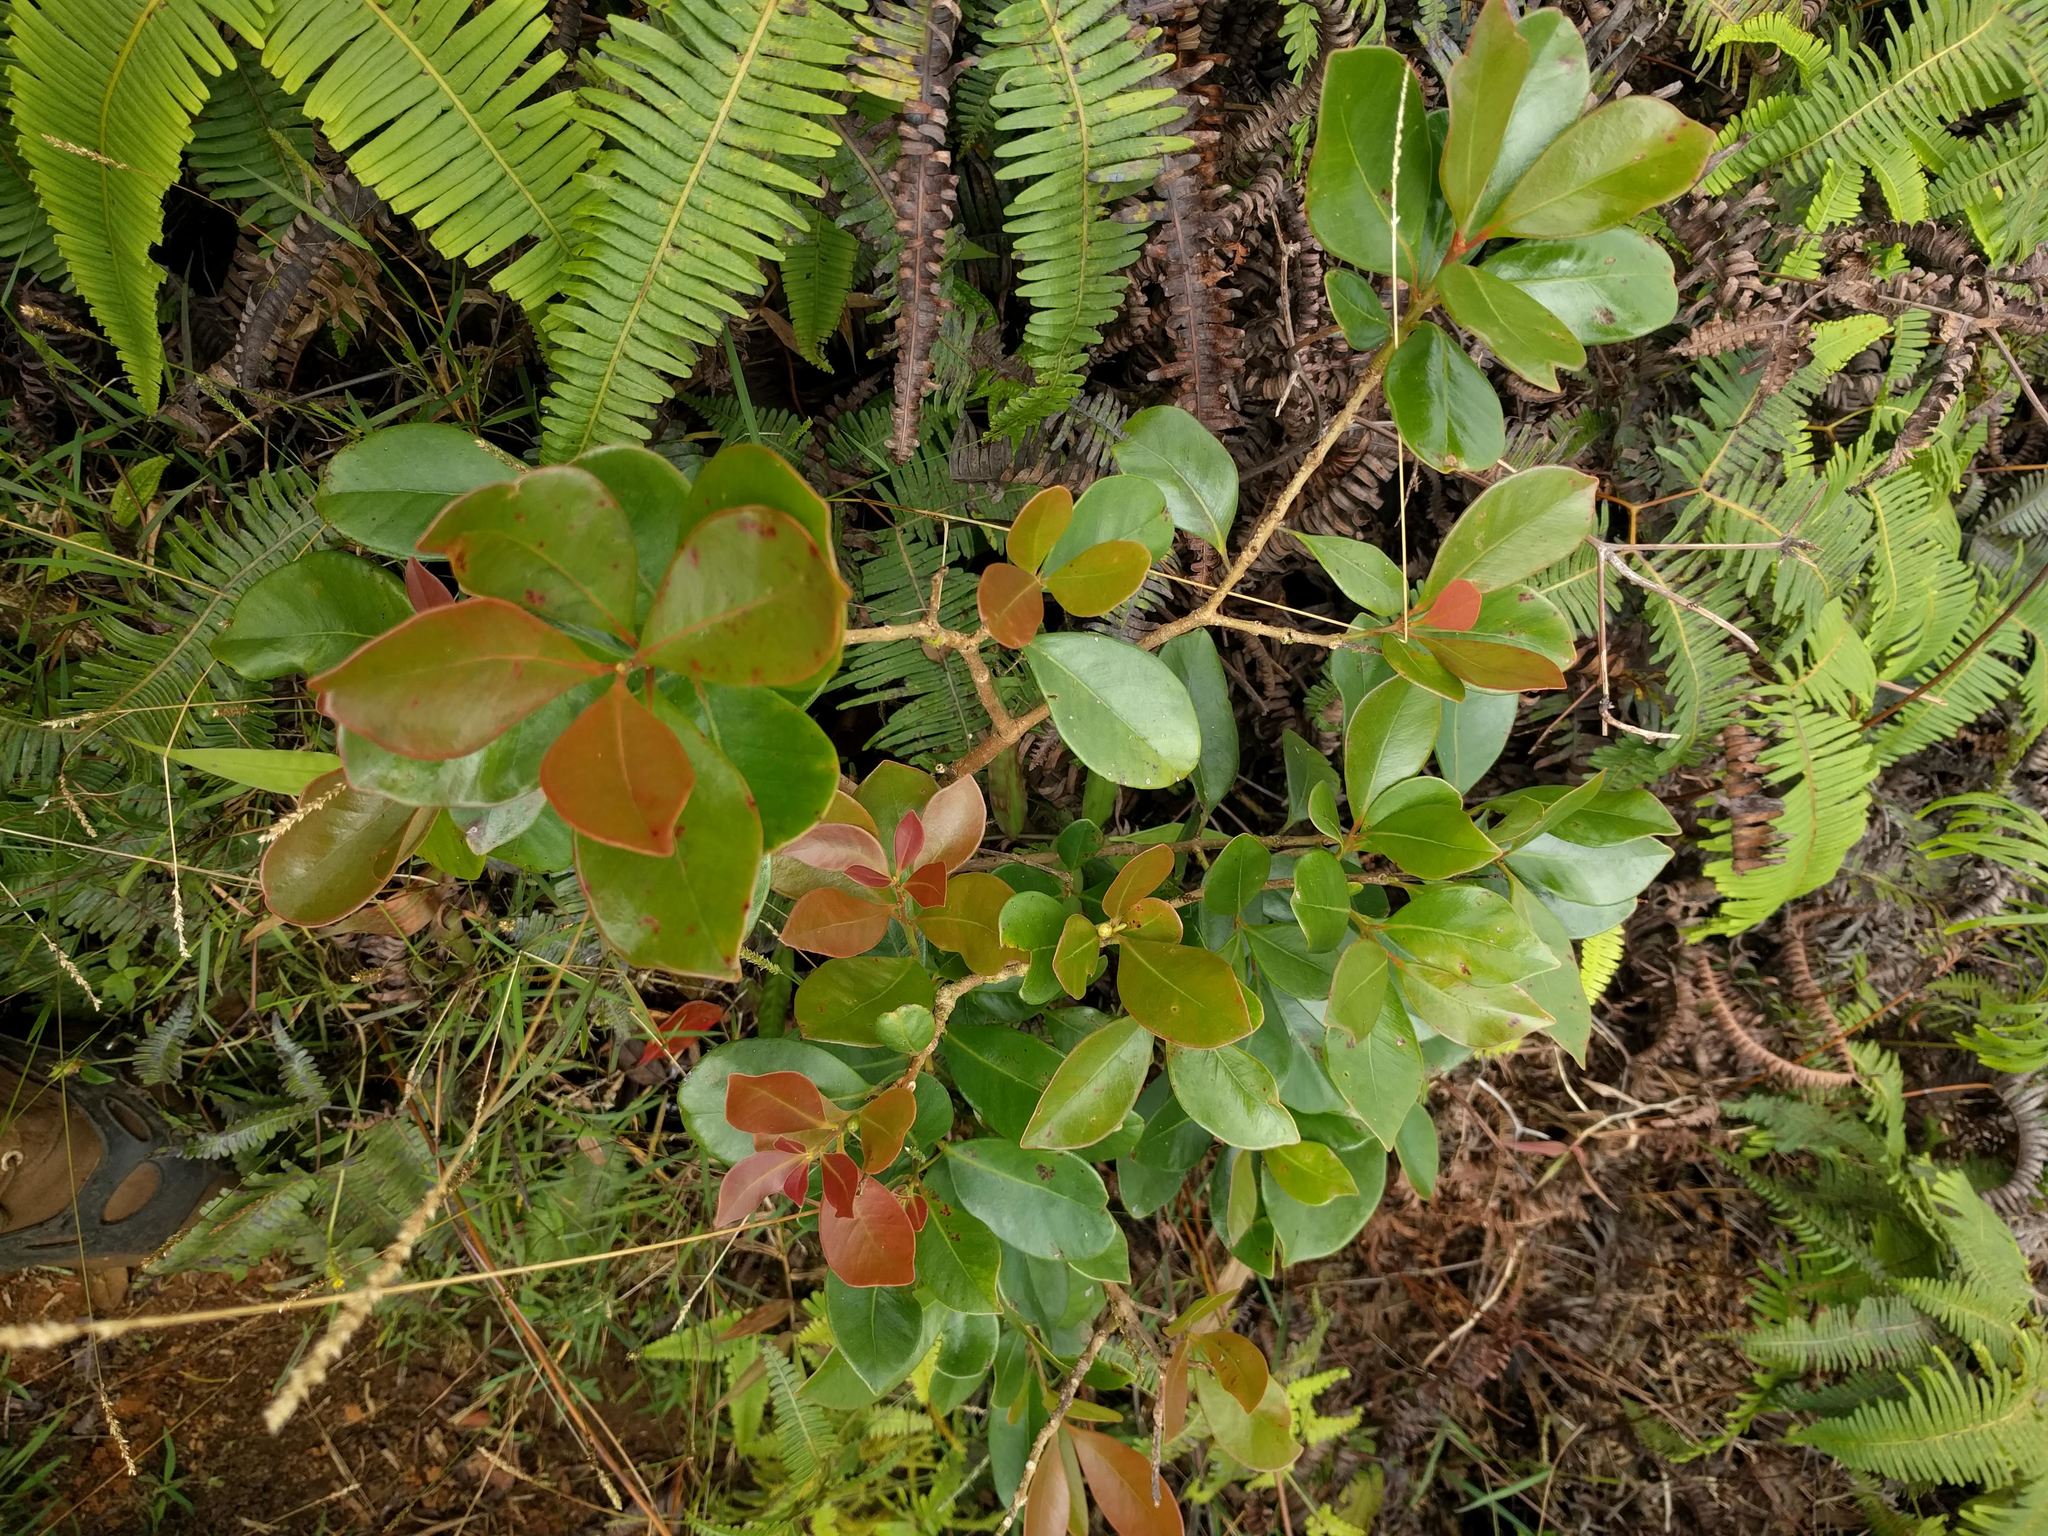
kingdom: Plantae
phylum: Tracheophyta
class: Magnoliopsida
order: Myrtales
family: Myrtaceae
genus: Psidium
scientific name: Psidium cattleianum
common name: Strawberry guava
